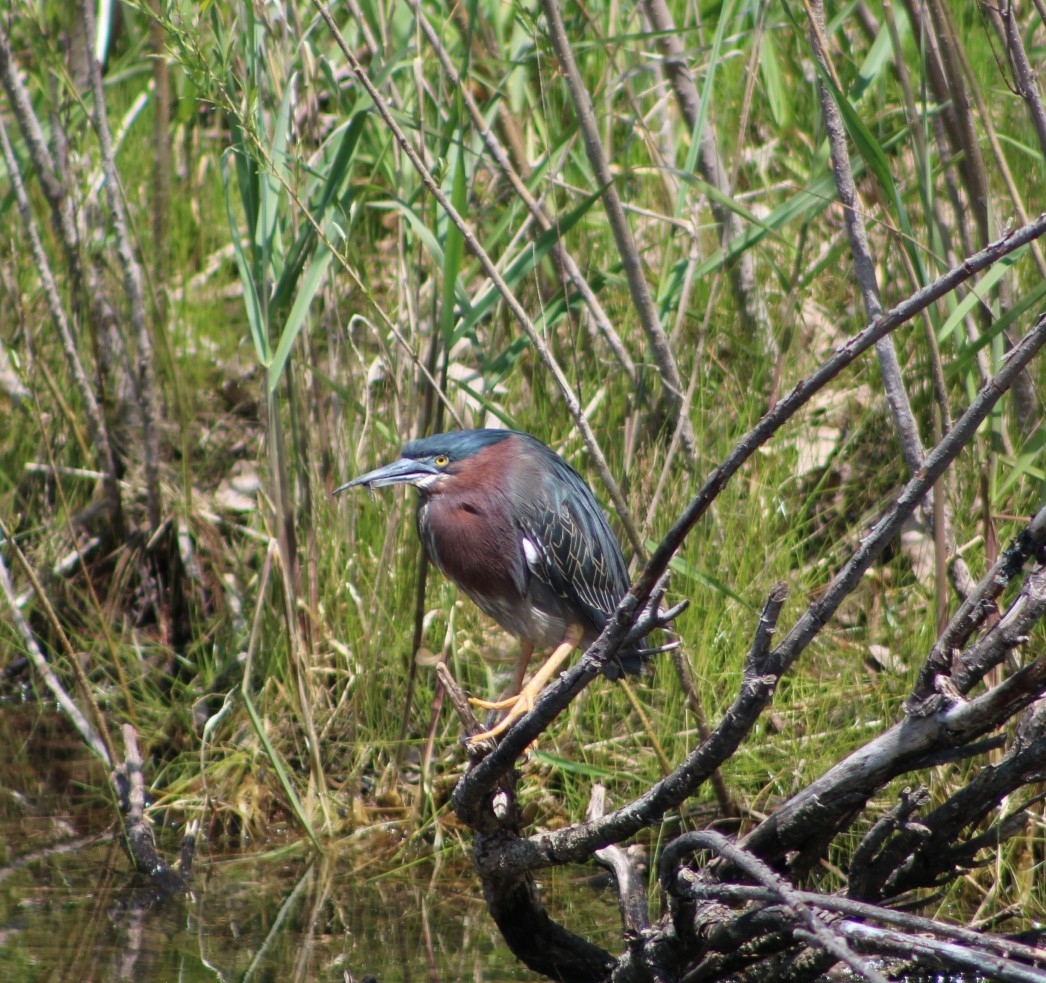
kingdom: Animalia
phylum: Chordata
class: Aves
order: Pelecaniformes
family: Ardeidae
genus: Butorides
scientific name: Butorides virescens
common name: Green heron
